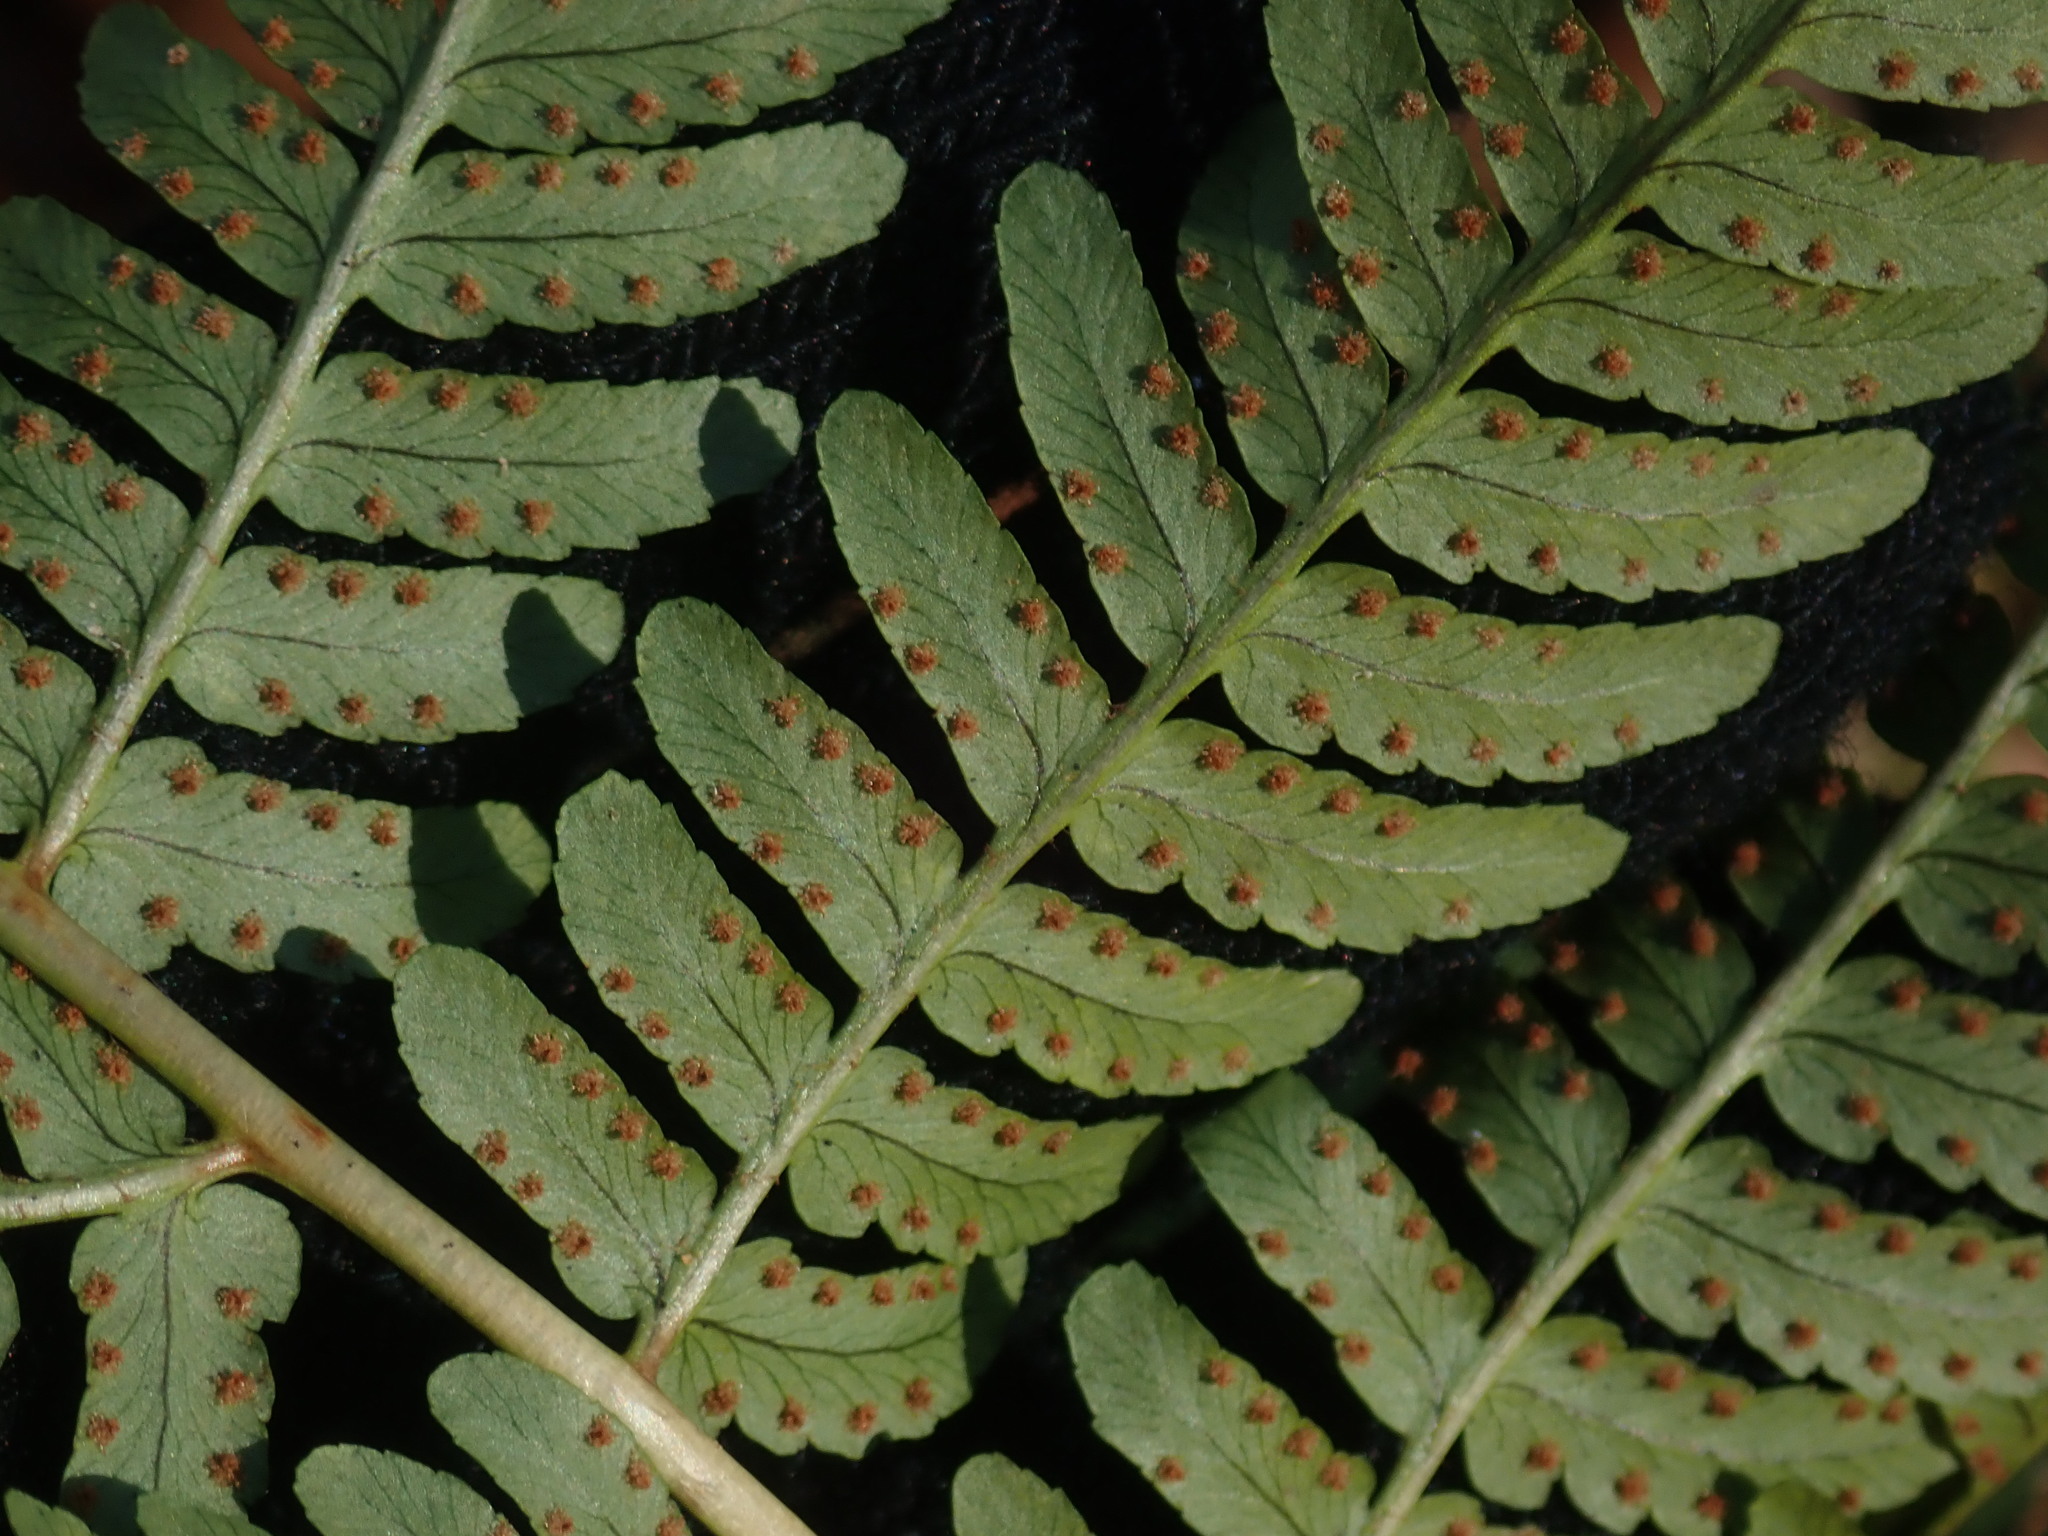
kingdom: Plantae
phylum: Tracheophyta
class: Polypodiopsida
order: Polypodiales
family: Dryopteridaceae
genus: Dryopteris
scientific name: Dryopteris marginalis
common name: Marginal wood fern
